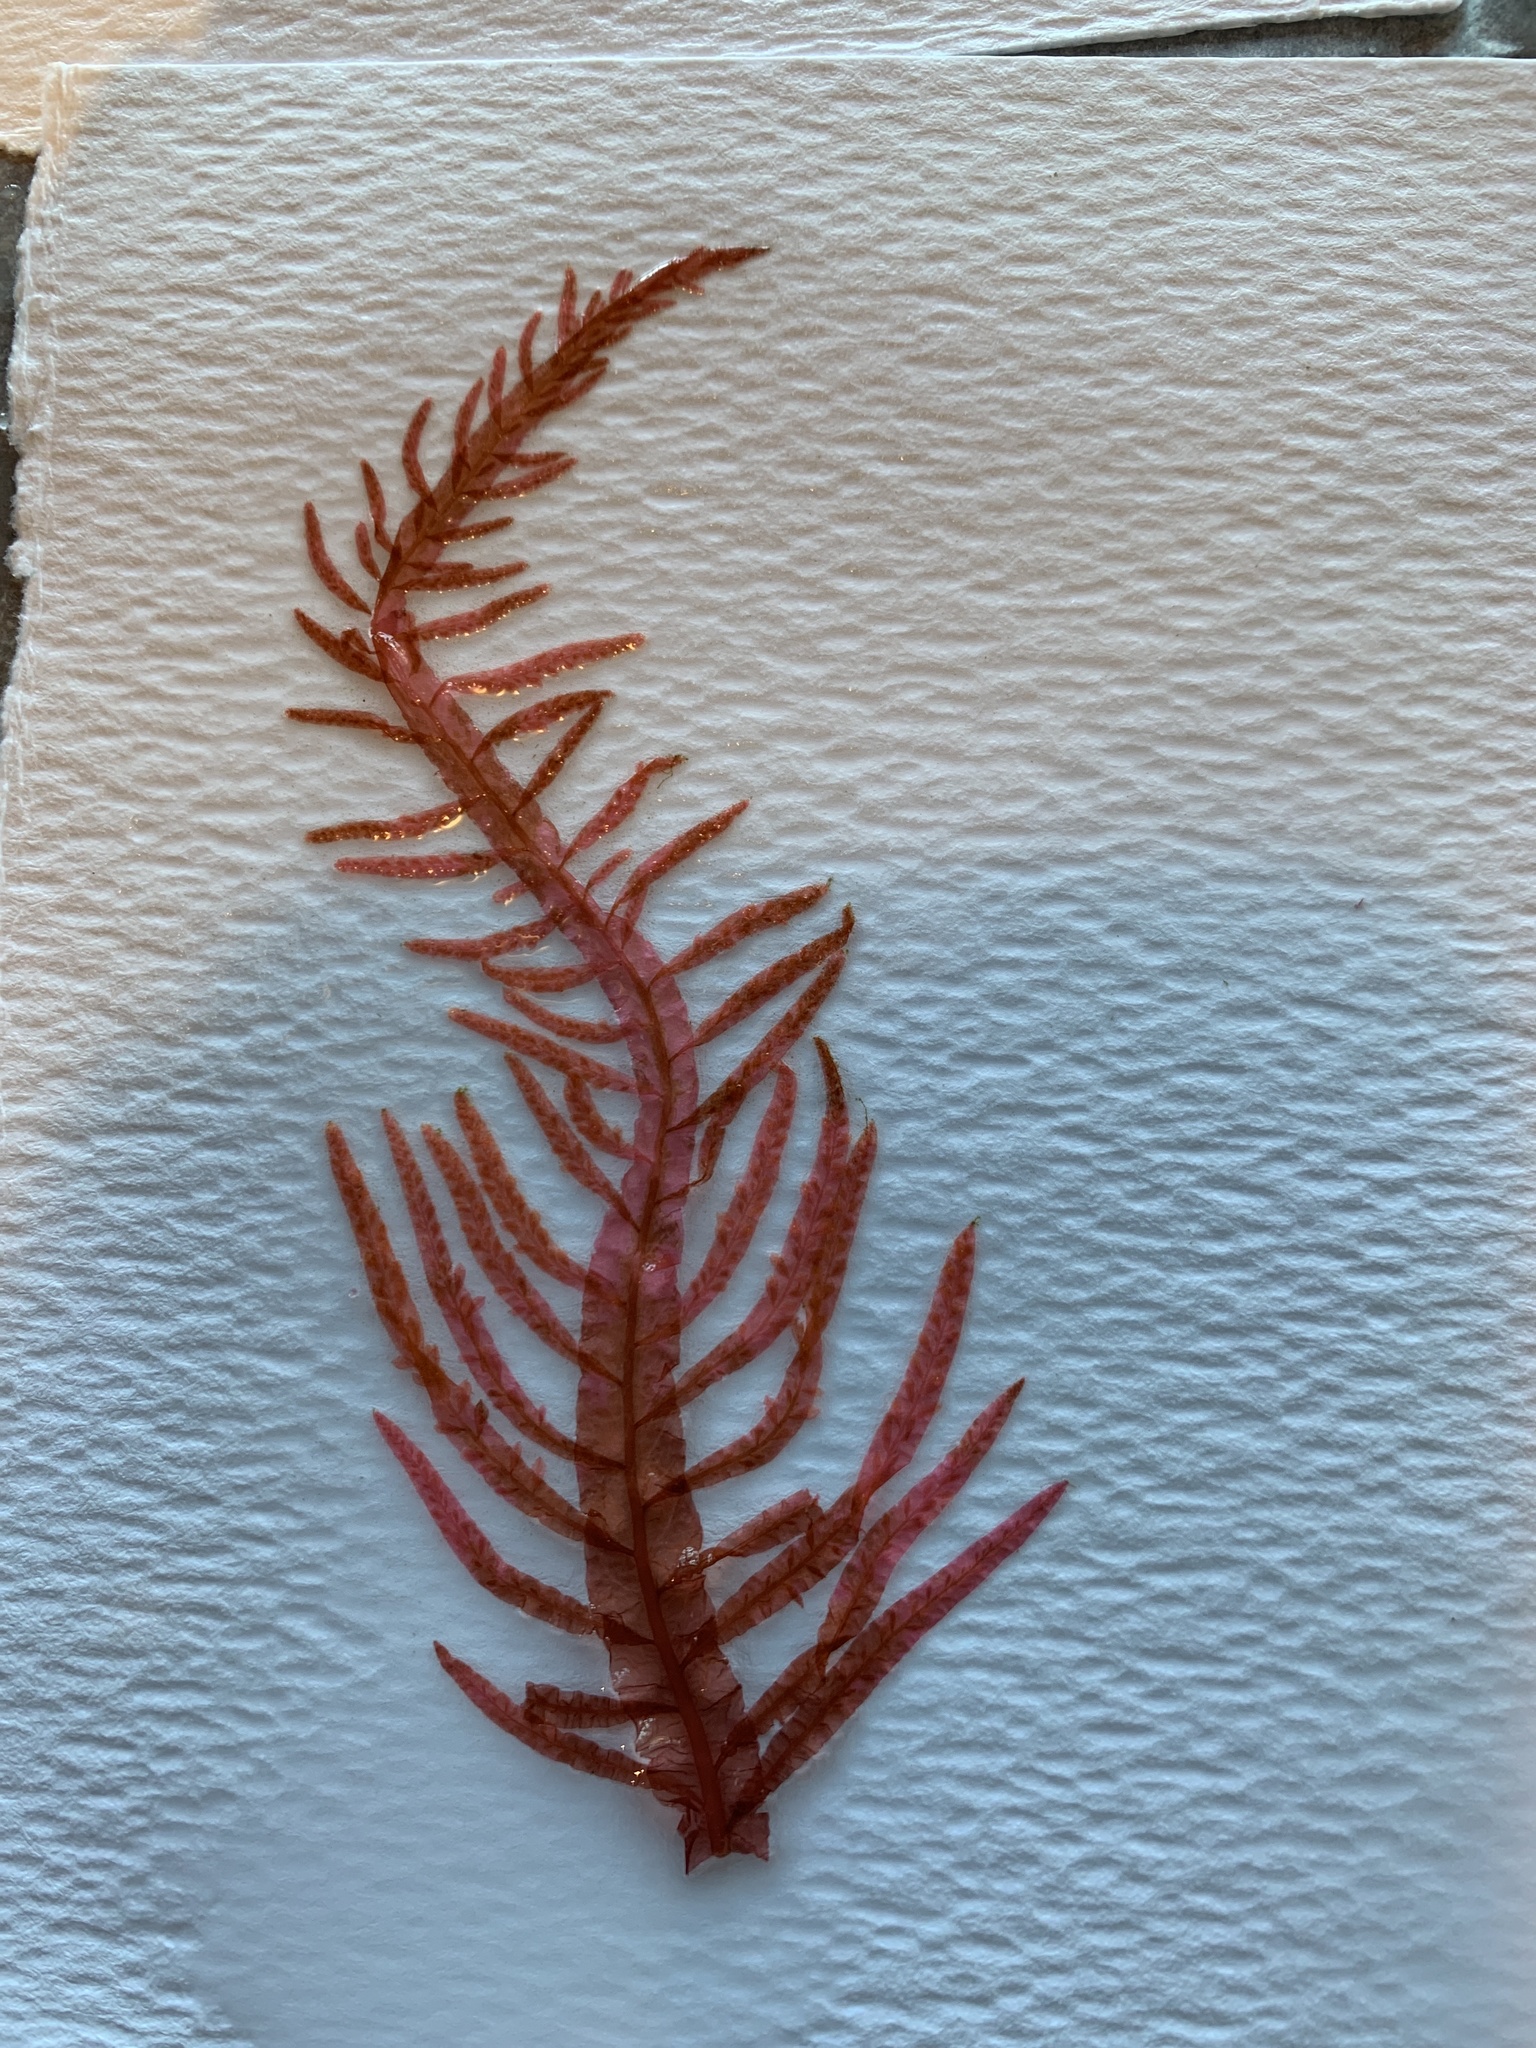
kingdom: Plantae
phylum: Rhodophyta
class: Florideophyceae
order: Ceramiales
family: Delesseriaceae
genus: Cumathamnion
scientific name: Cumathamnion decipiens
